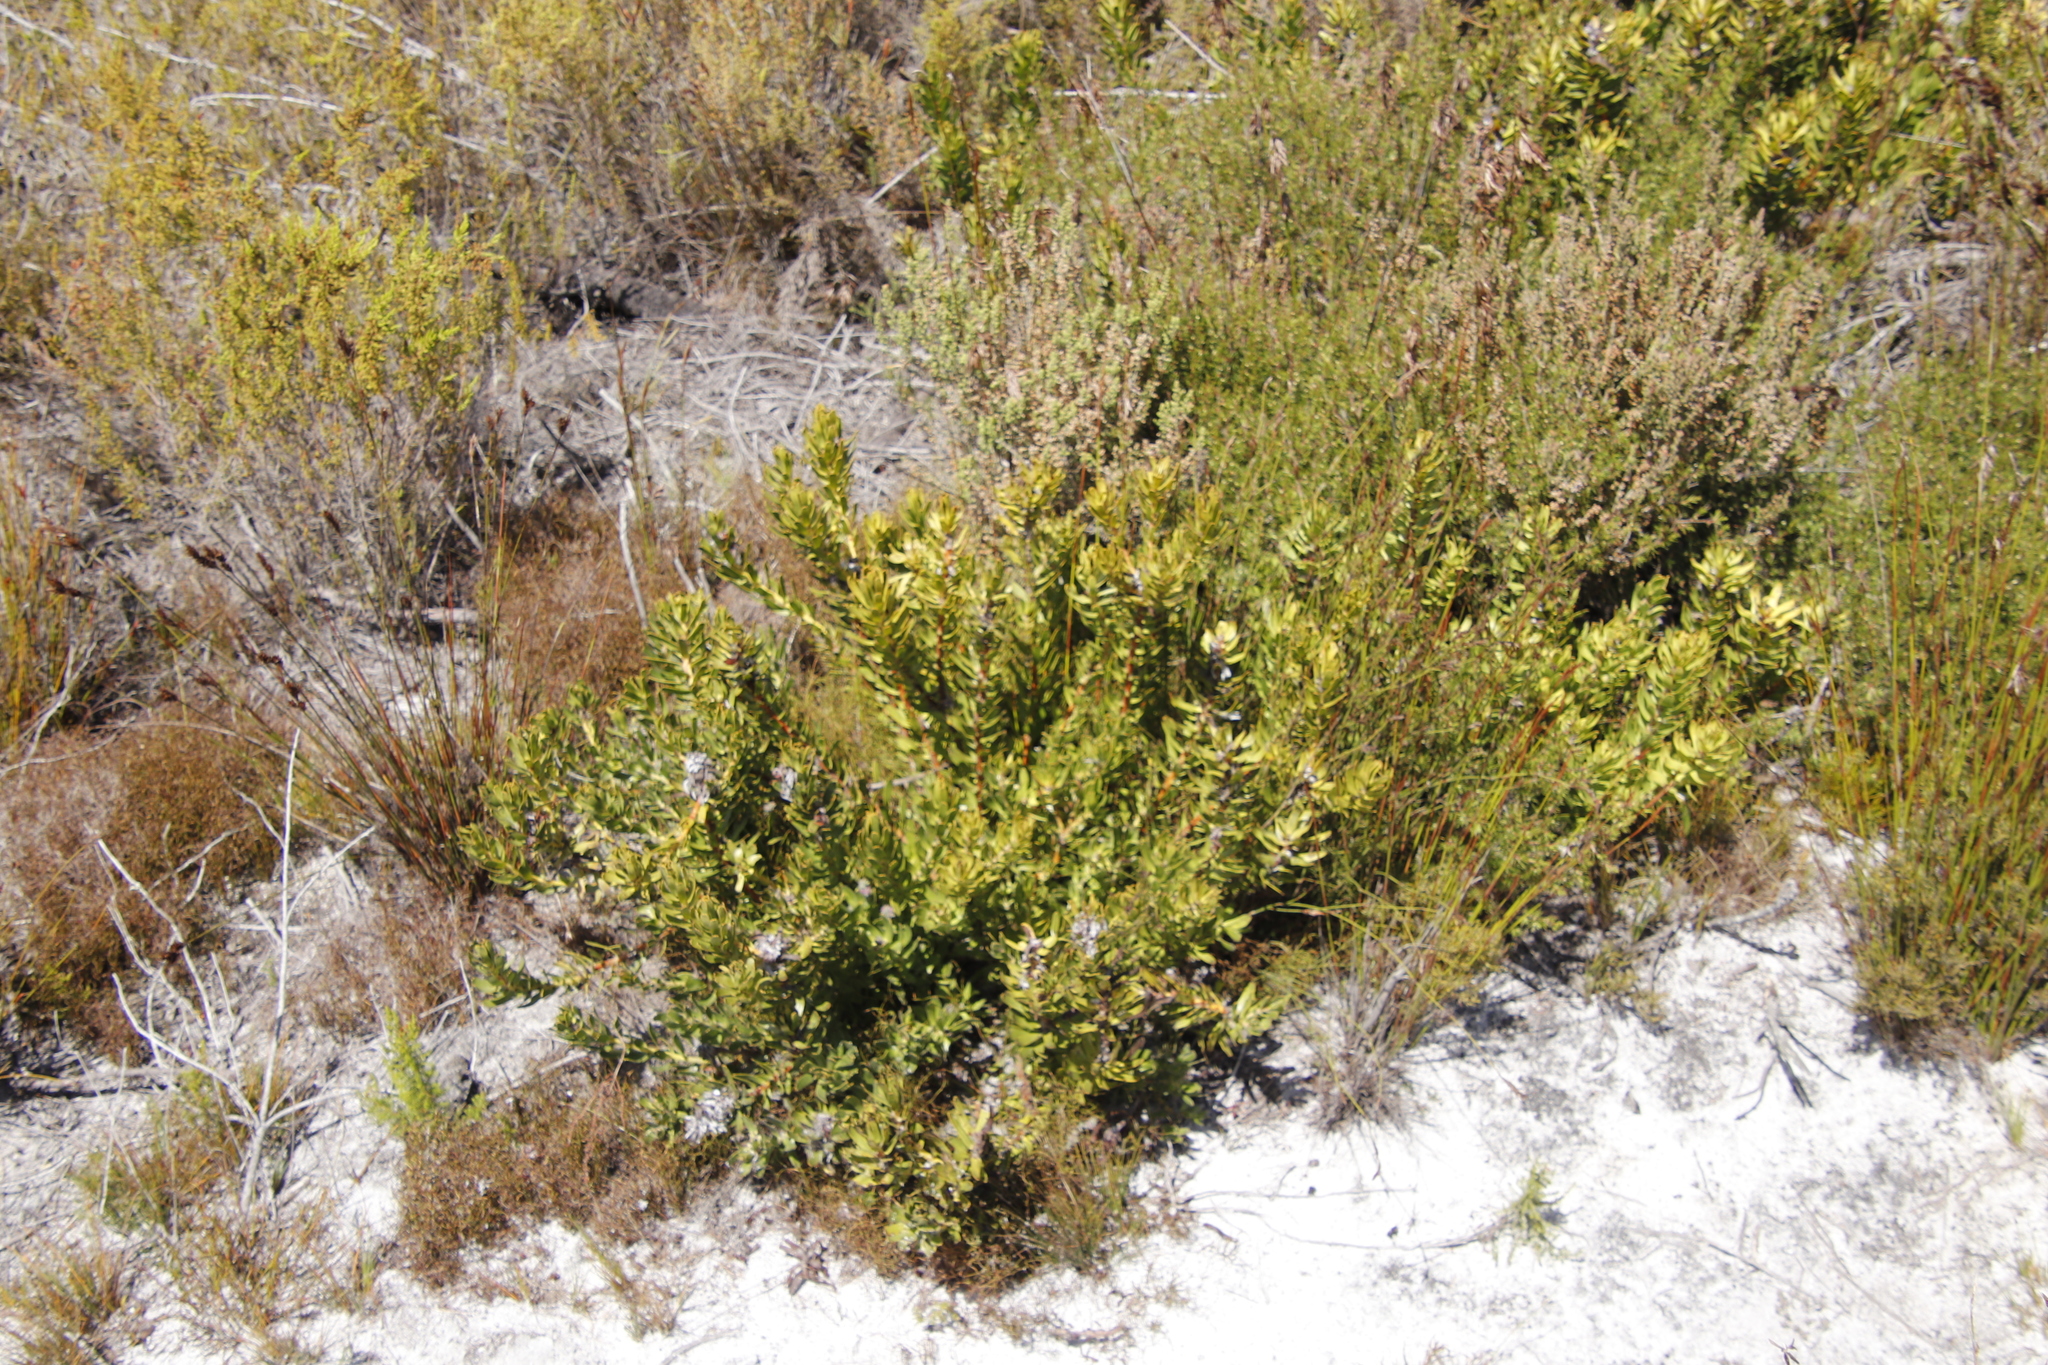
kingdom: Plantae
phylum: Tracheophyta
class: Magnoliopsida
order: Proteales
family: Proteaceae
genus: Mimetes
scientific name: Mimetes cucullatus
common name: Common pagoda
